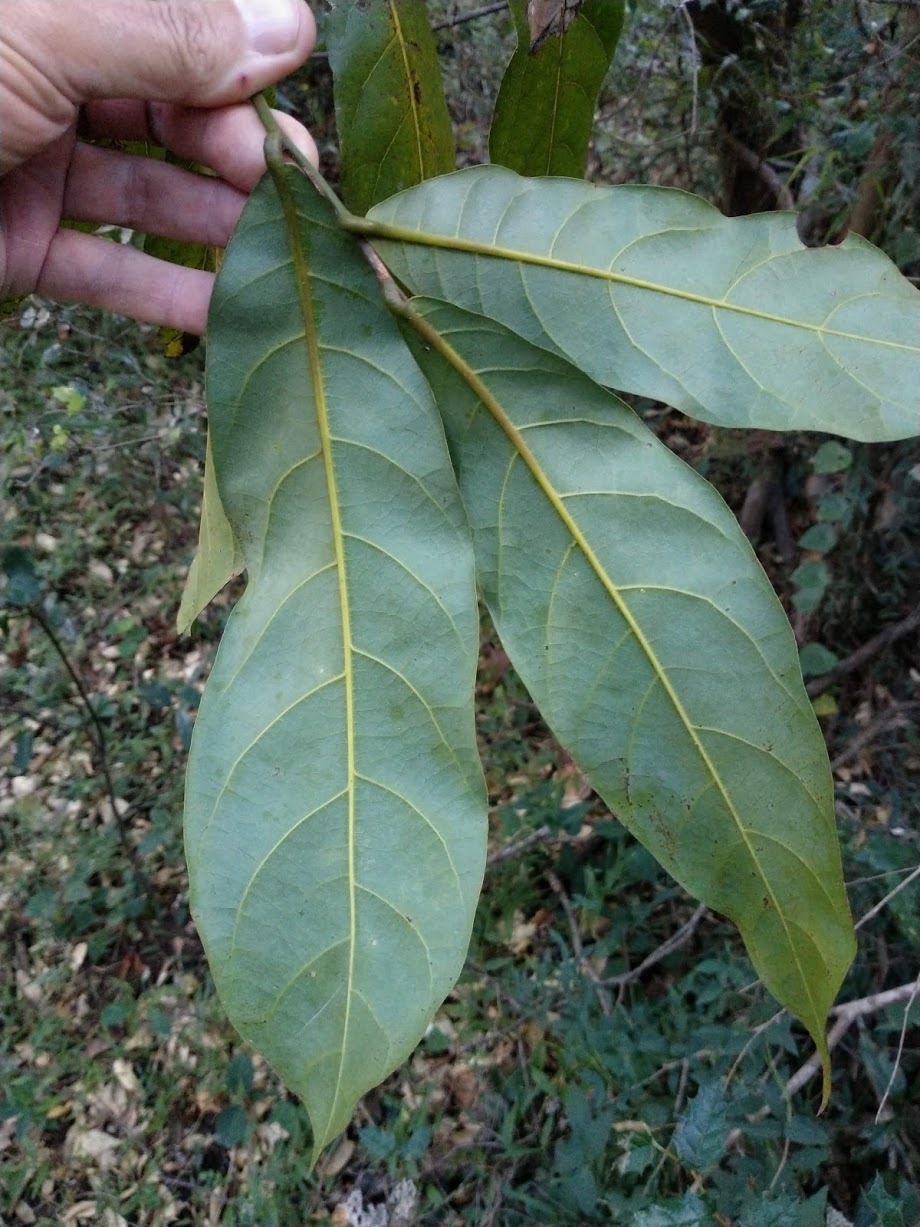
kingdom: Plantae
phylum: Tracheophyta
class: Magnoliopsida
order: Laurales
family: Lauraceae
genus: Cryptocarya
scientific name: Cryptocarya hypospodia
